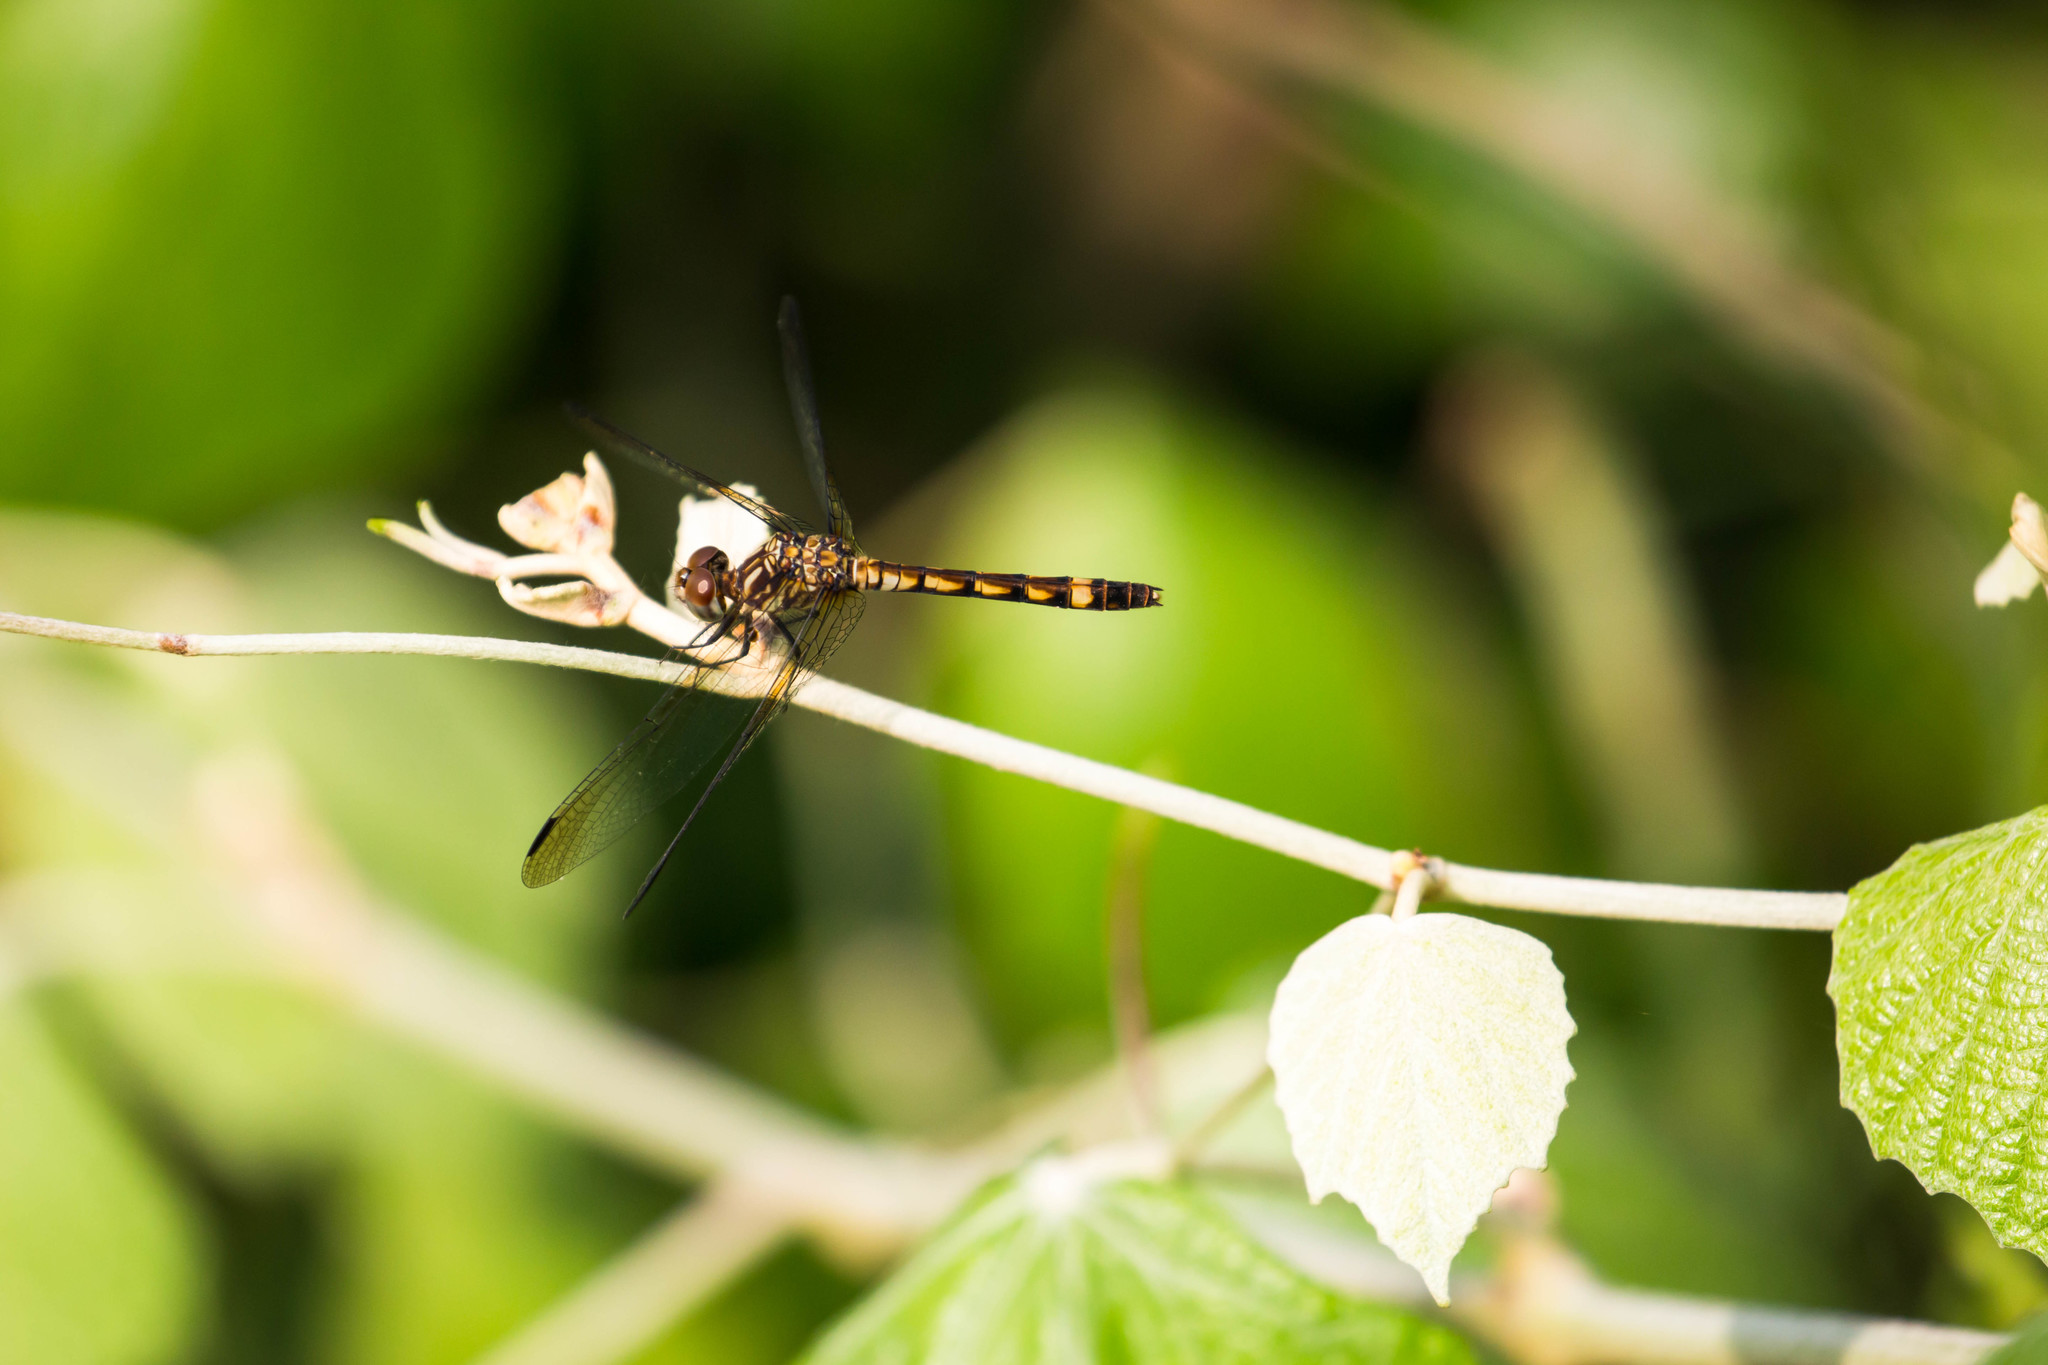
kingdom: Animalia
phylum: Arthropoda
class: Insecta
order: Odonata
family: Libellulidae
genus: Micrathyria
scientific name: Micrathyria hagenii
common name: Thornbush dasher
